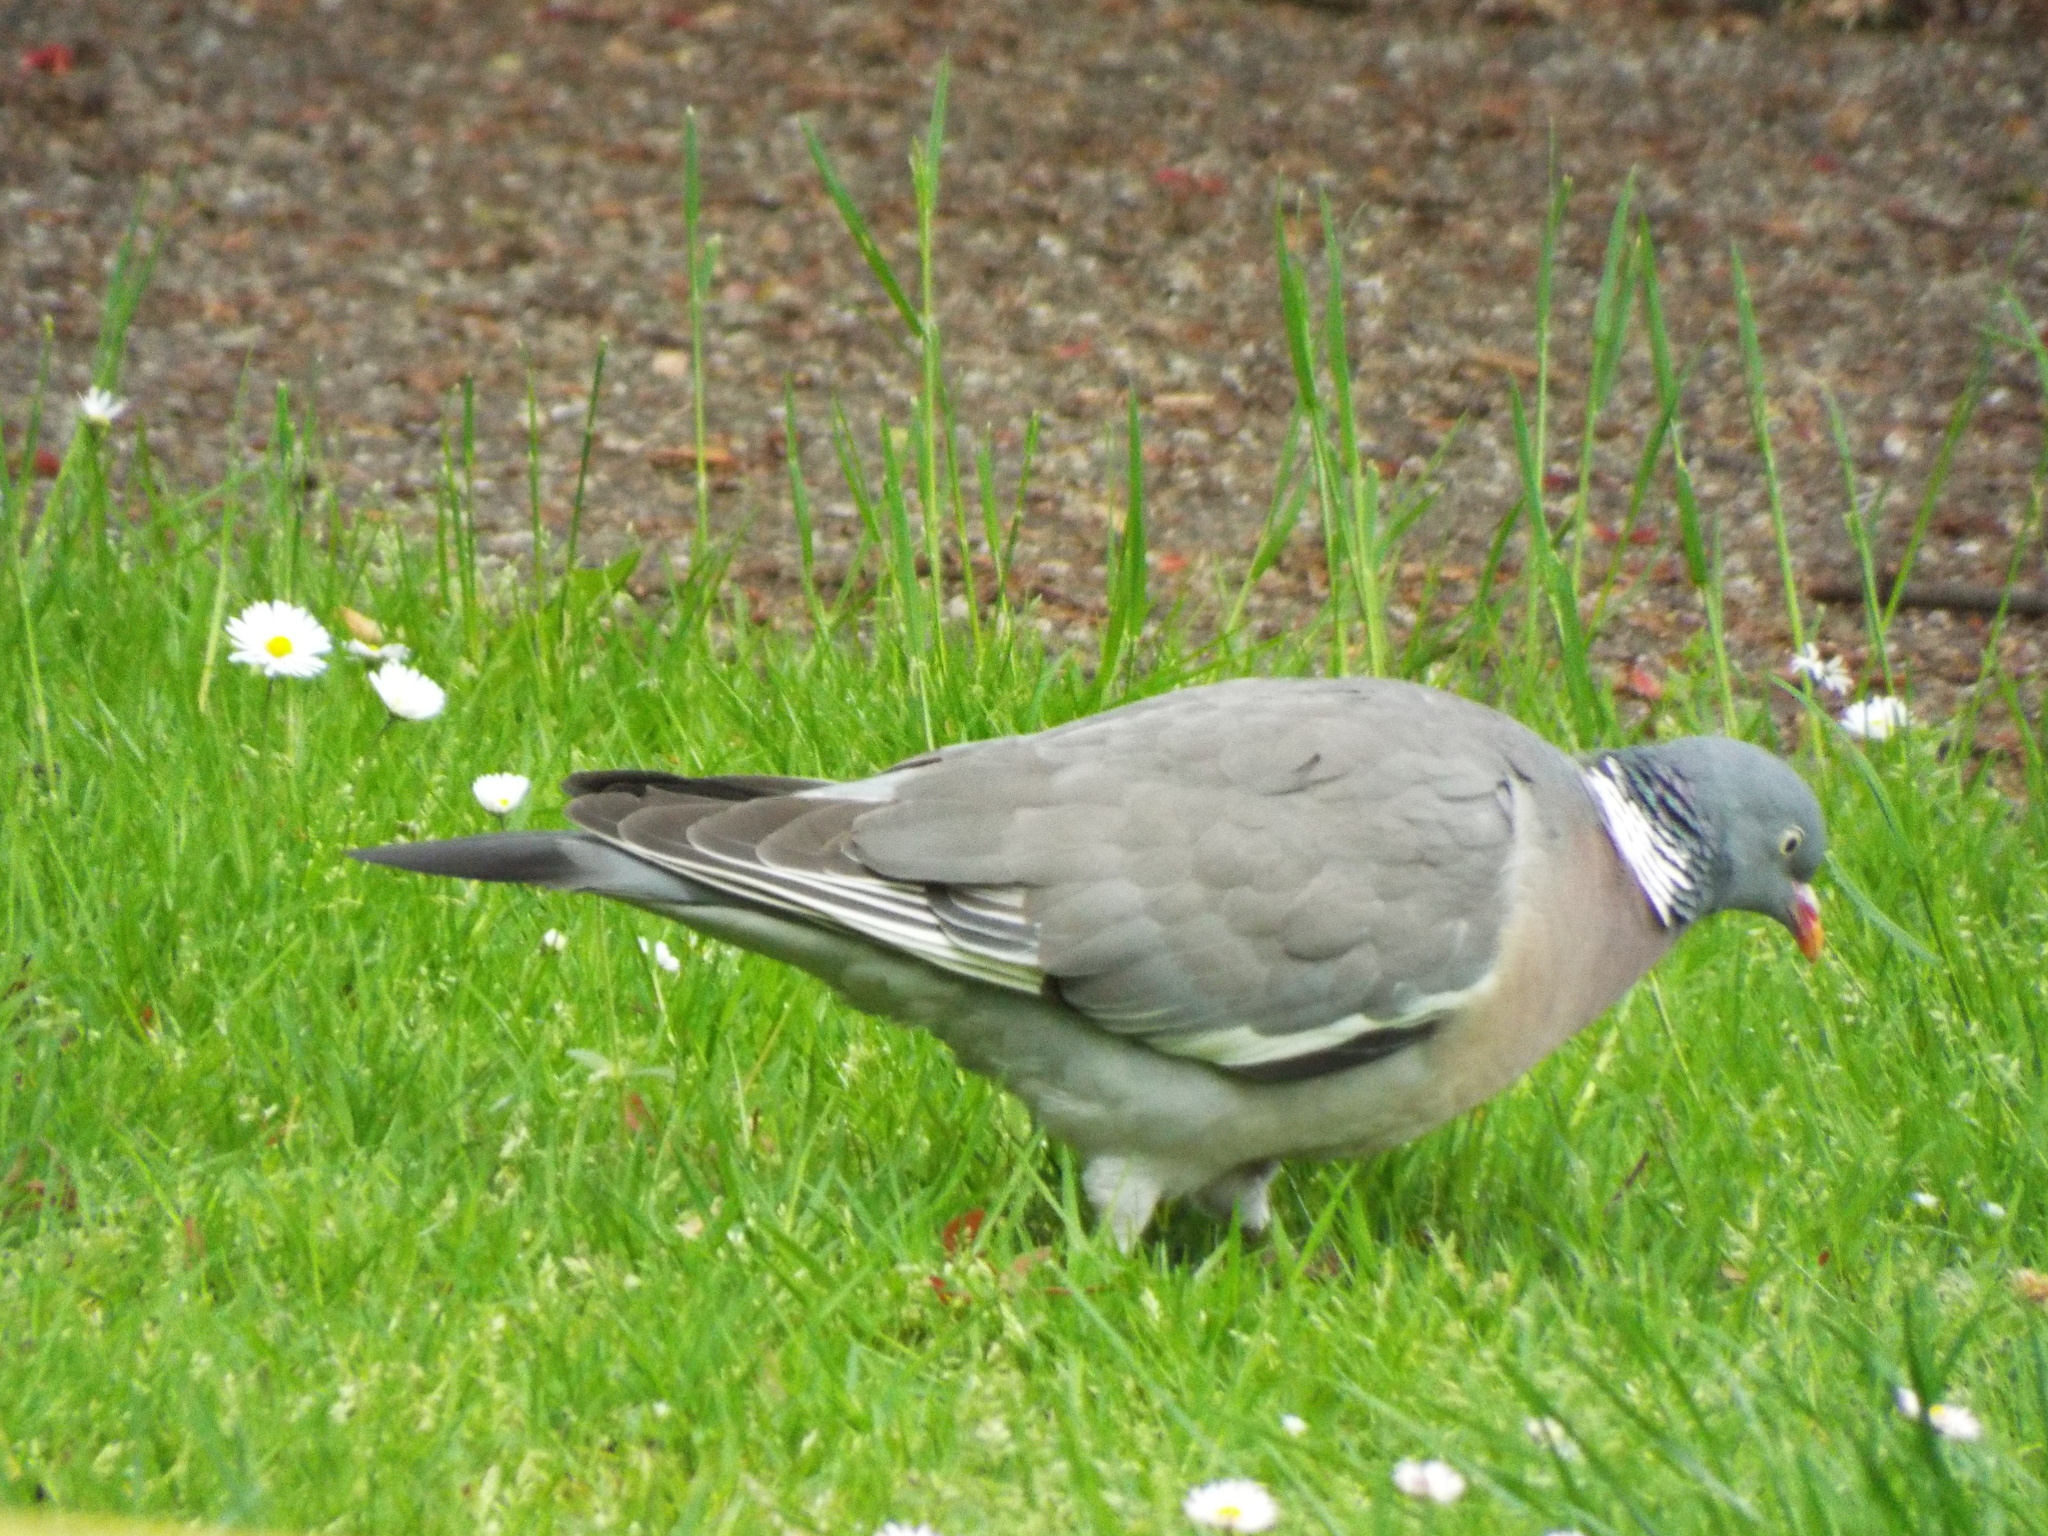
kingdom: Animalia
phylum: Chordata
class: Aves
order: Columbiformes
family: Columbidae
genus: Columba
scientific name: Columba palumbus
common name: Common wood pigeon
